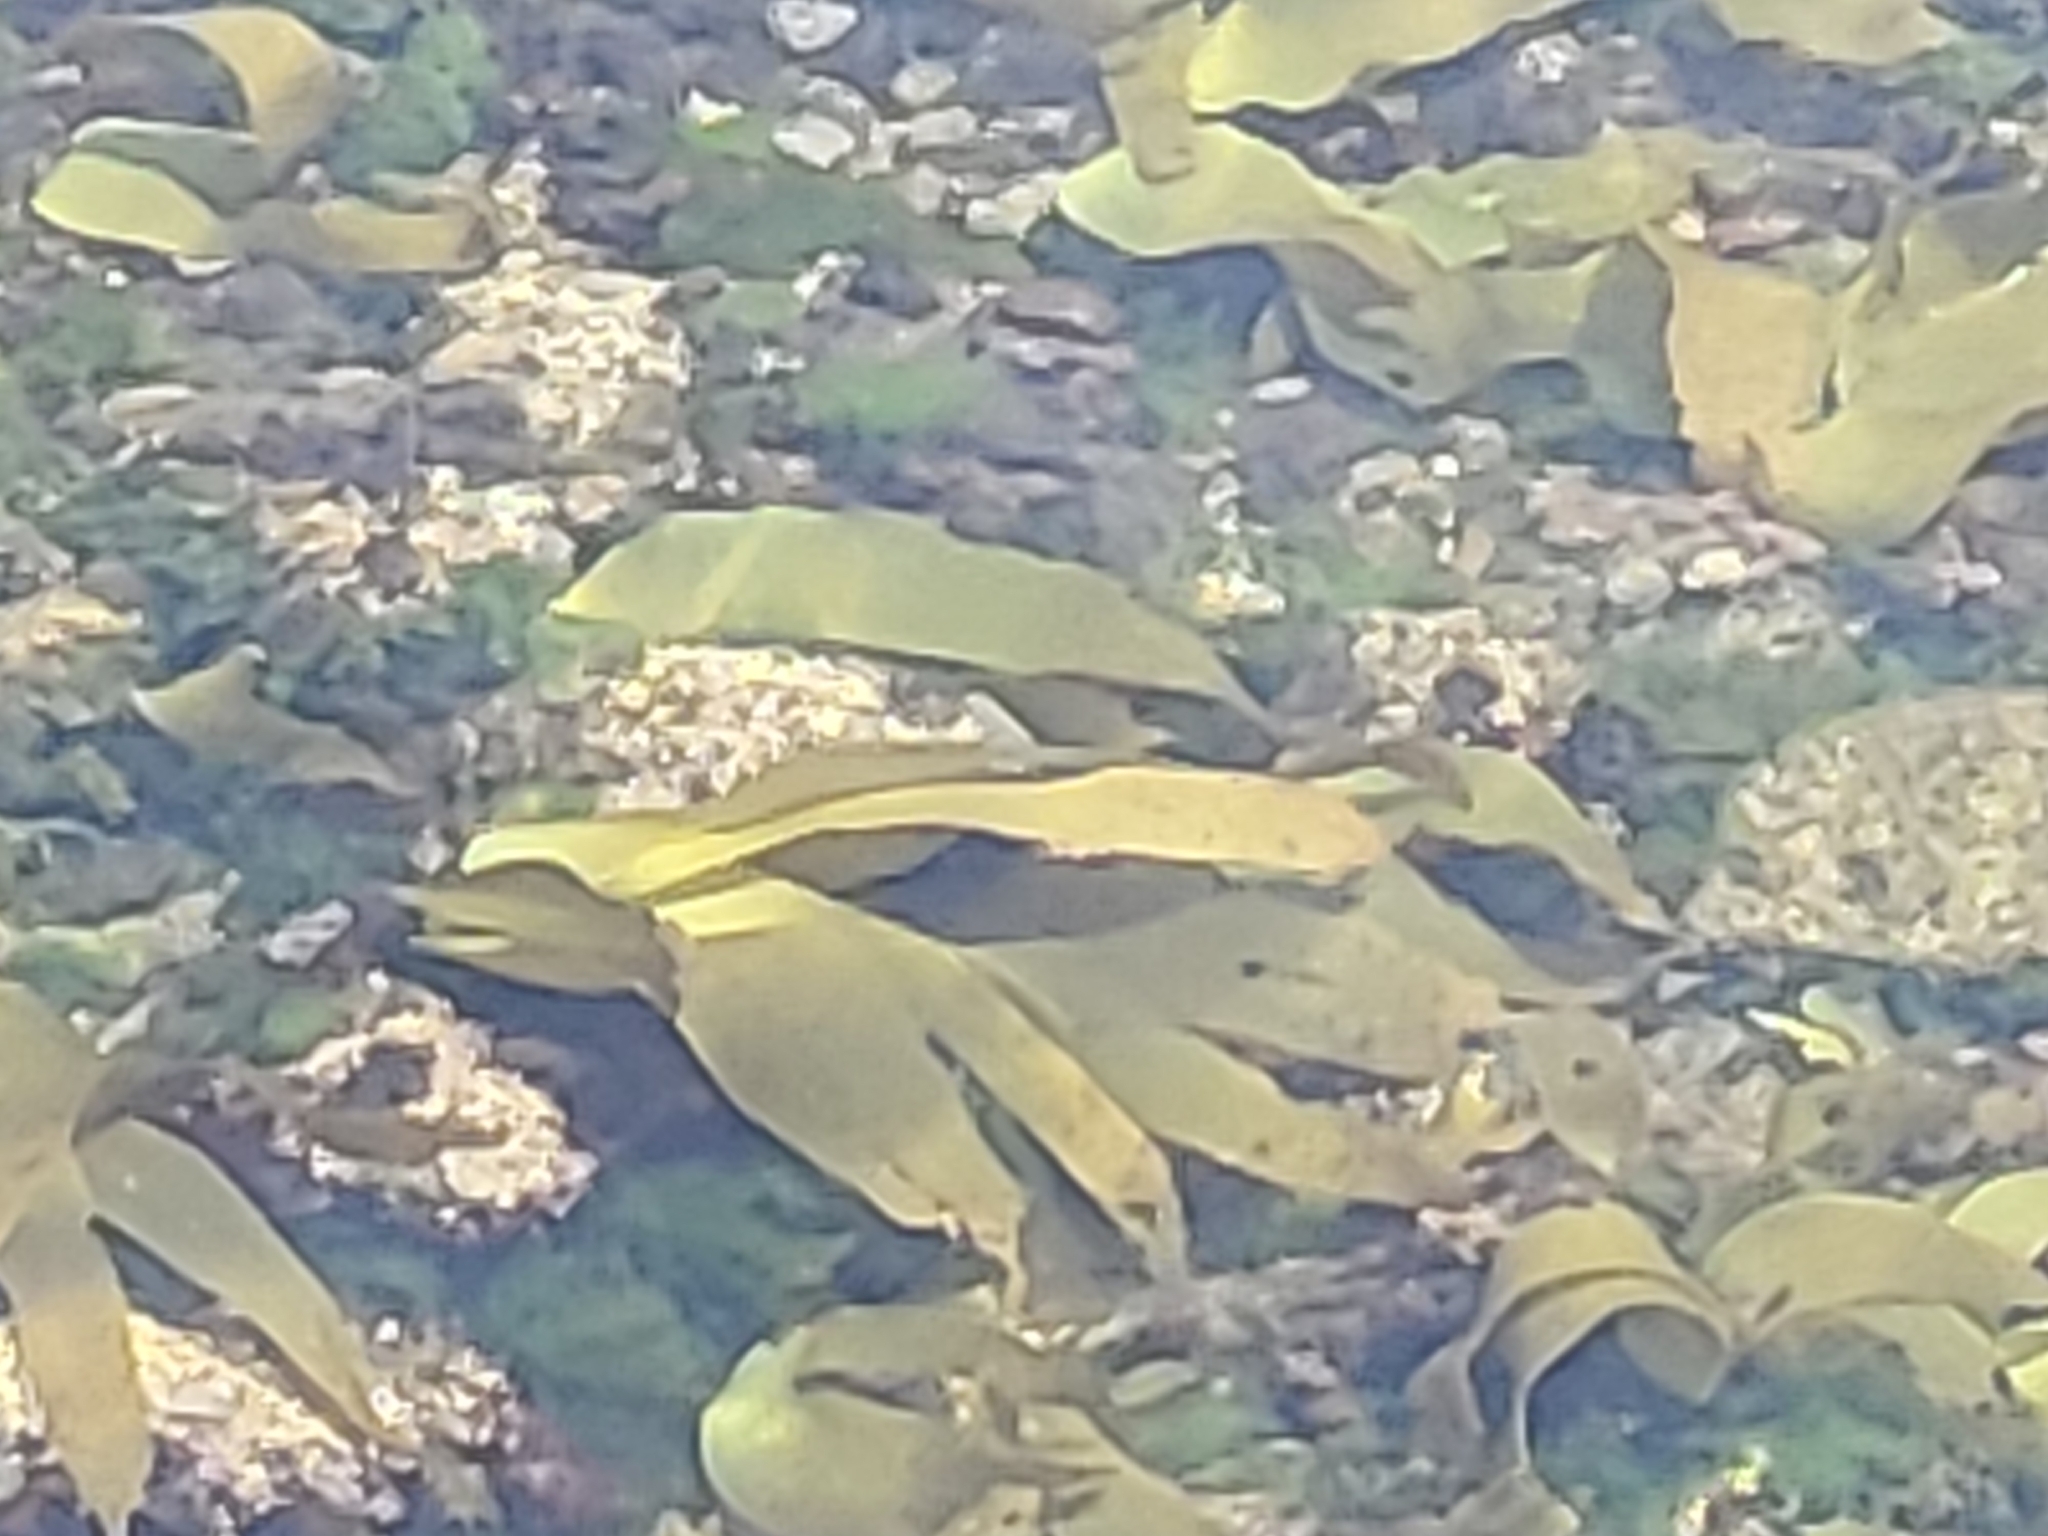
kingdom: Plantae
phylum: Chlorophyta
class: Ulvophyceae
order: Ulvales
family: Ulvaceae
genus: Ulva
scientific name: Ulva lactuca
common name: Sea lettuce
